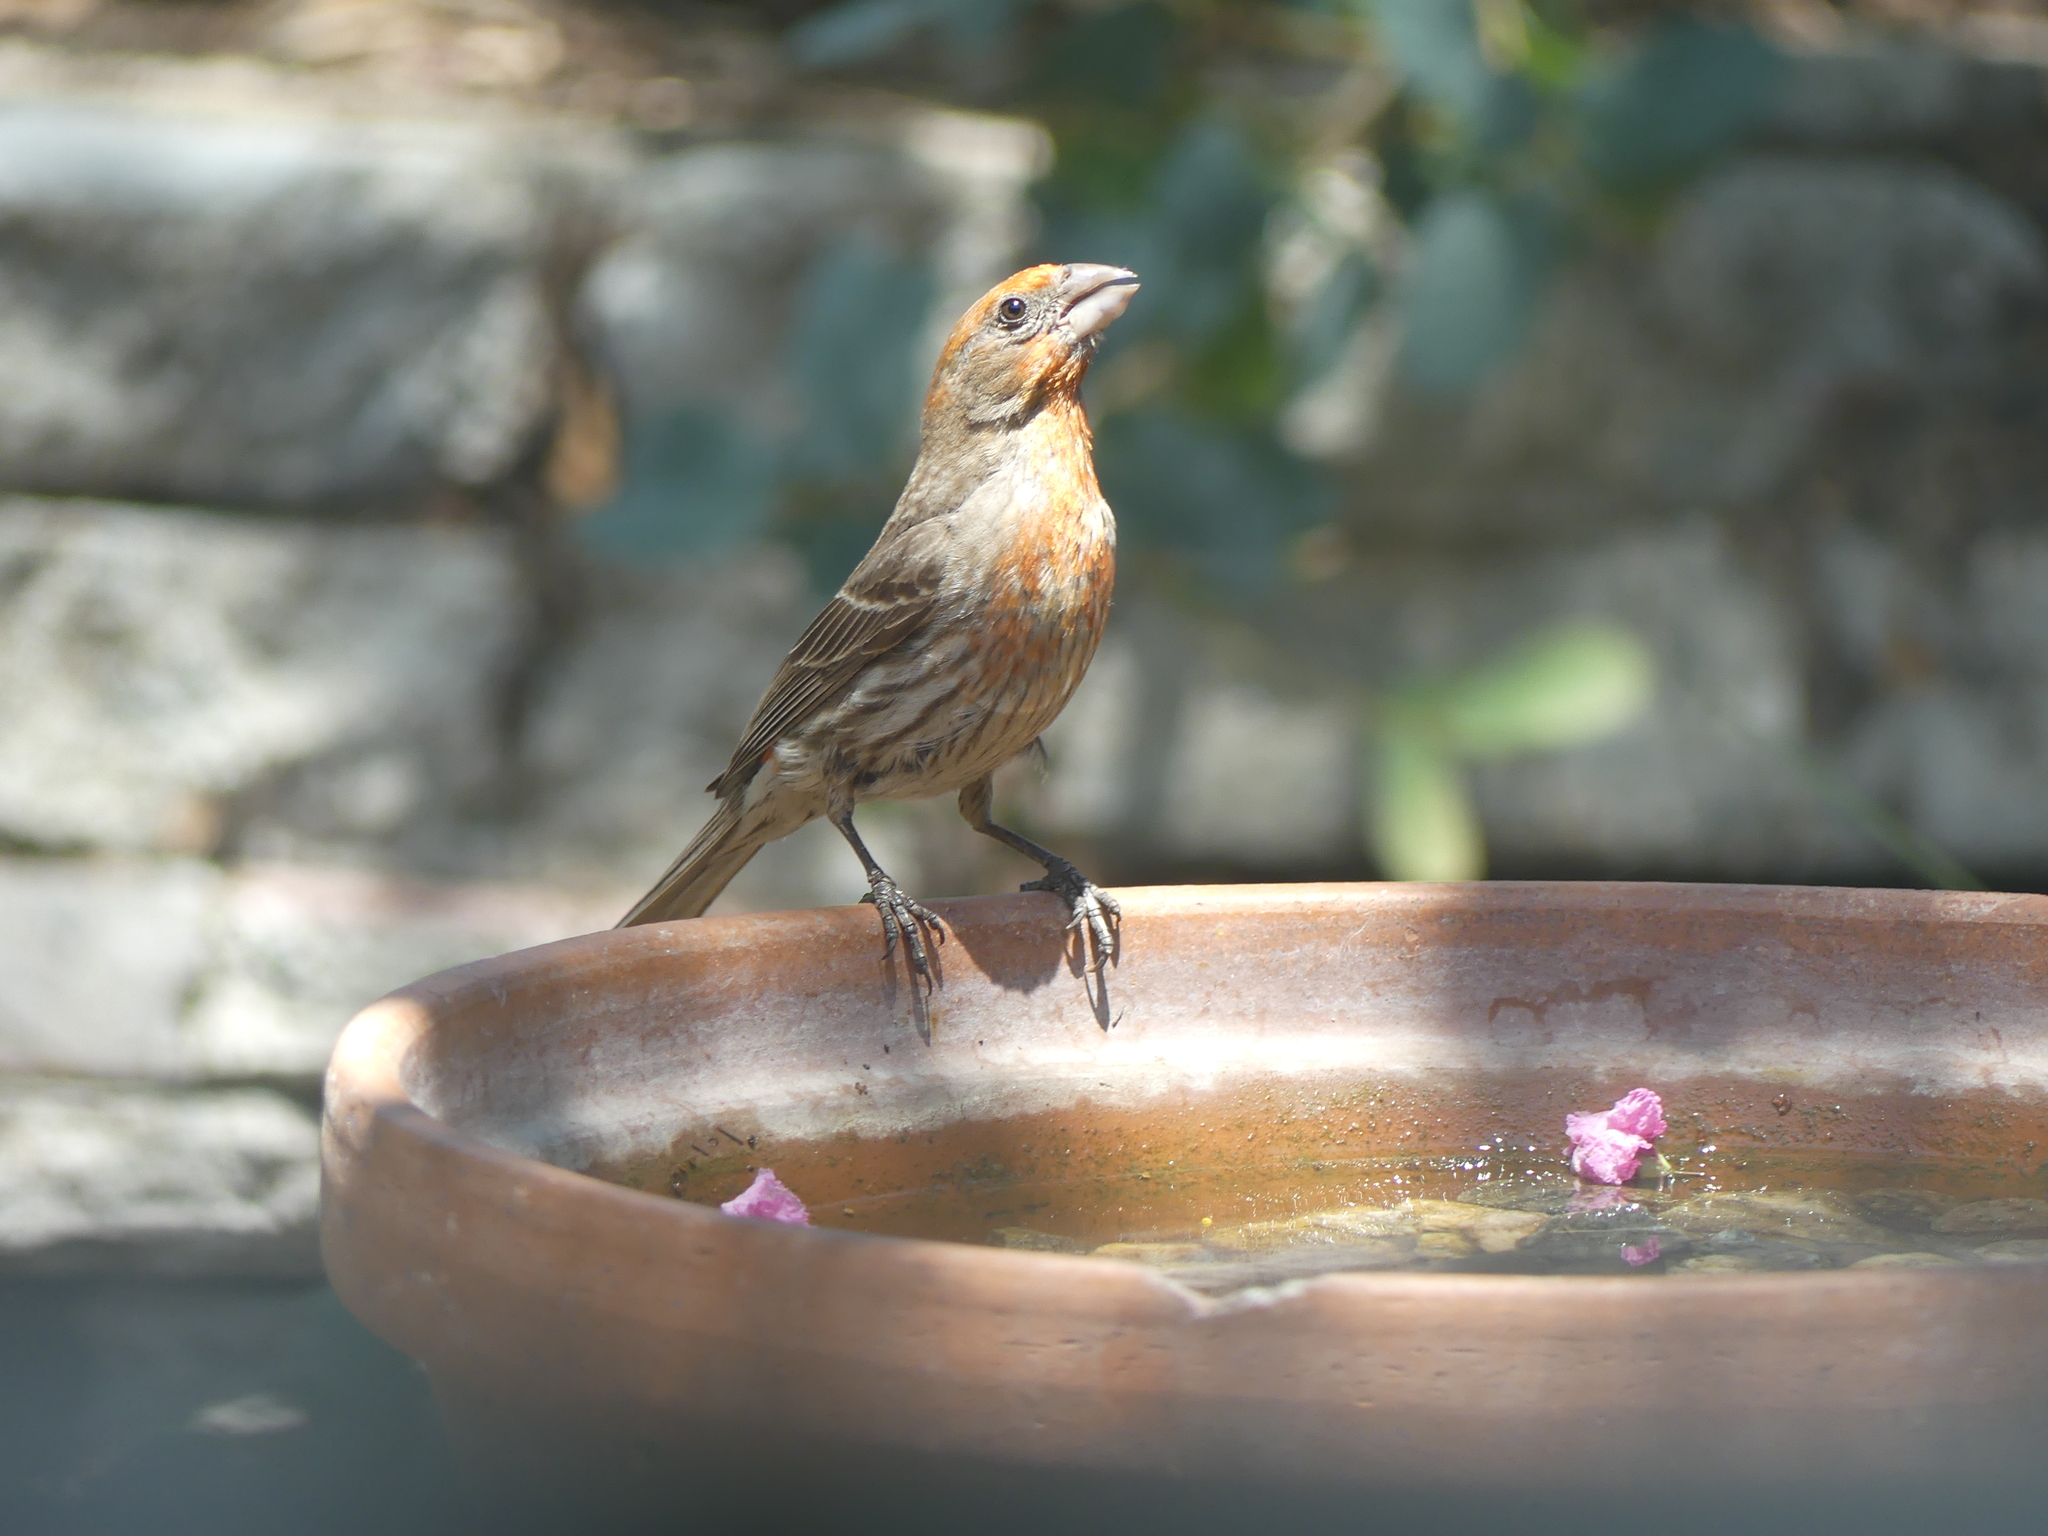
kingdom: Animalia
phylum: Chordata
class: Aves
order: Passeriformes
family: Fringillidae
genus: Haemorhous
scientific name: Haemorhous mexicanus
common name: House finch
